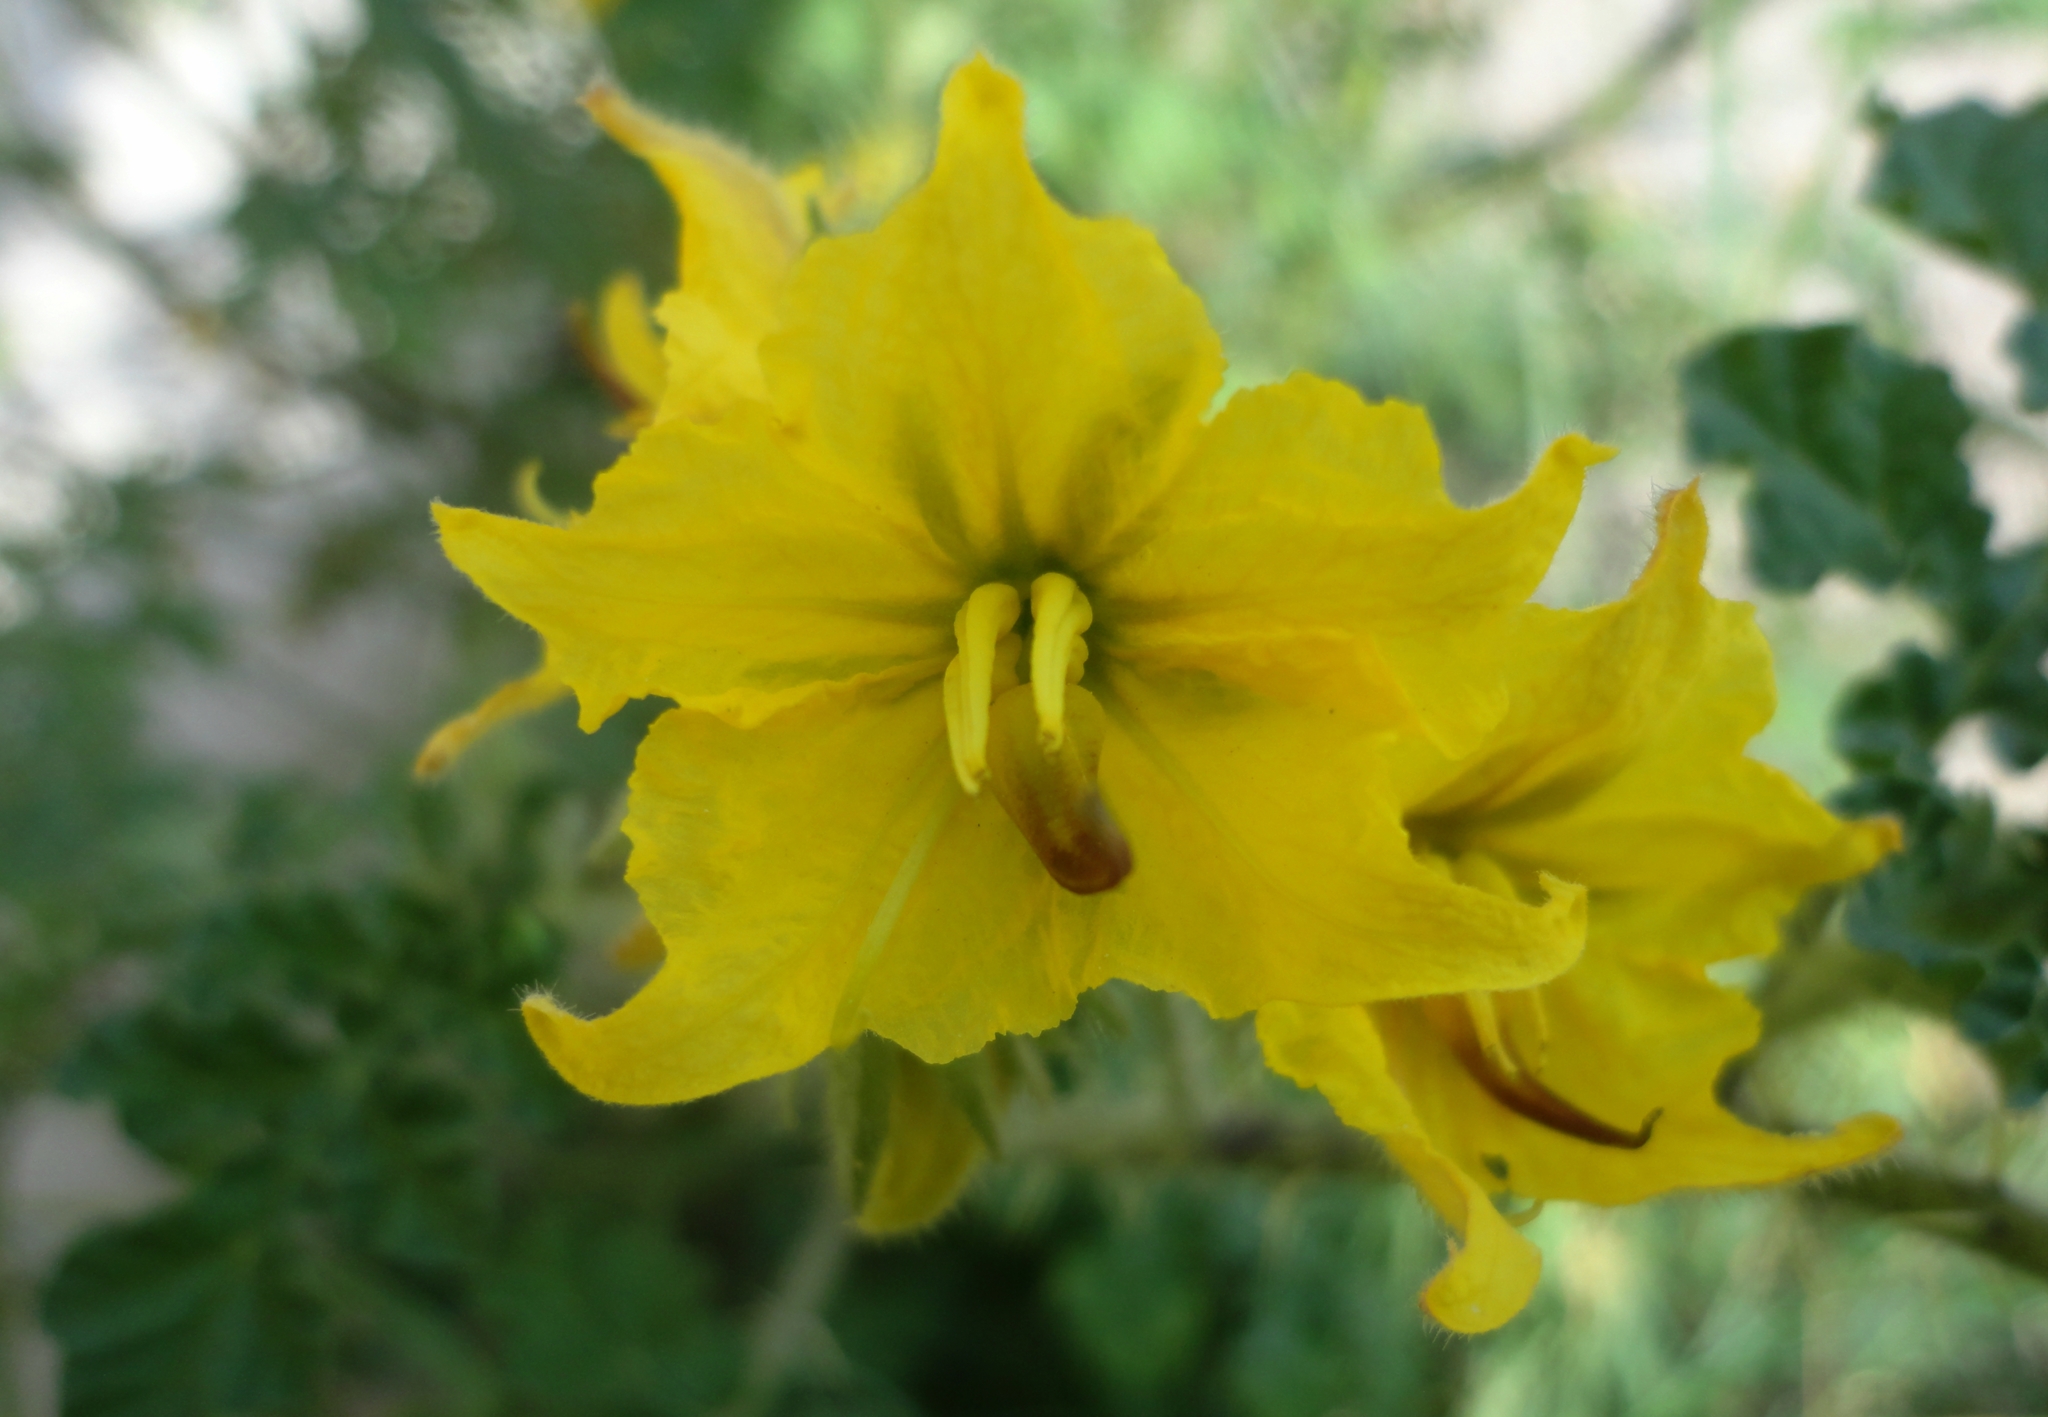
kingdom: Plantae
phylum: Tracheophyta
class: Magnoliopsida
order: Solanales
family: Solanaceae
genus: Solanum
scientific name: Solanum angustifolium
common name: Buffalobur nightshade
